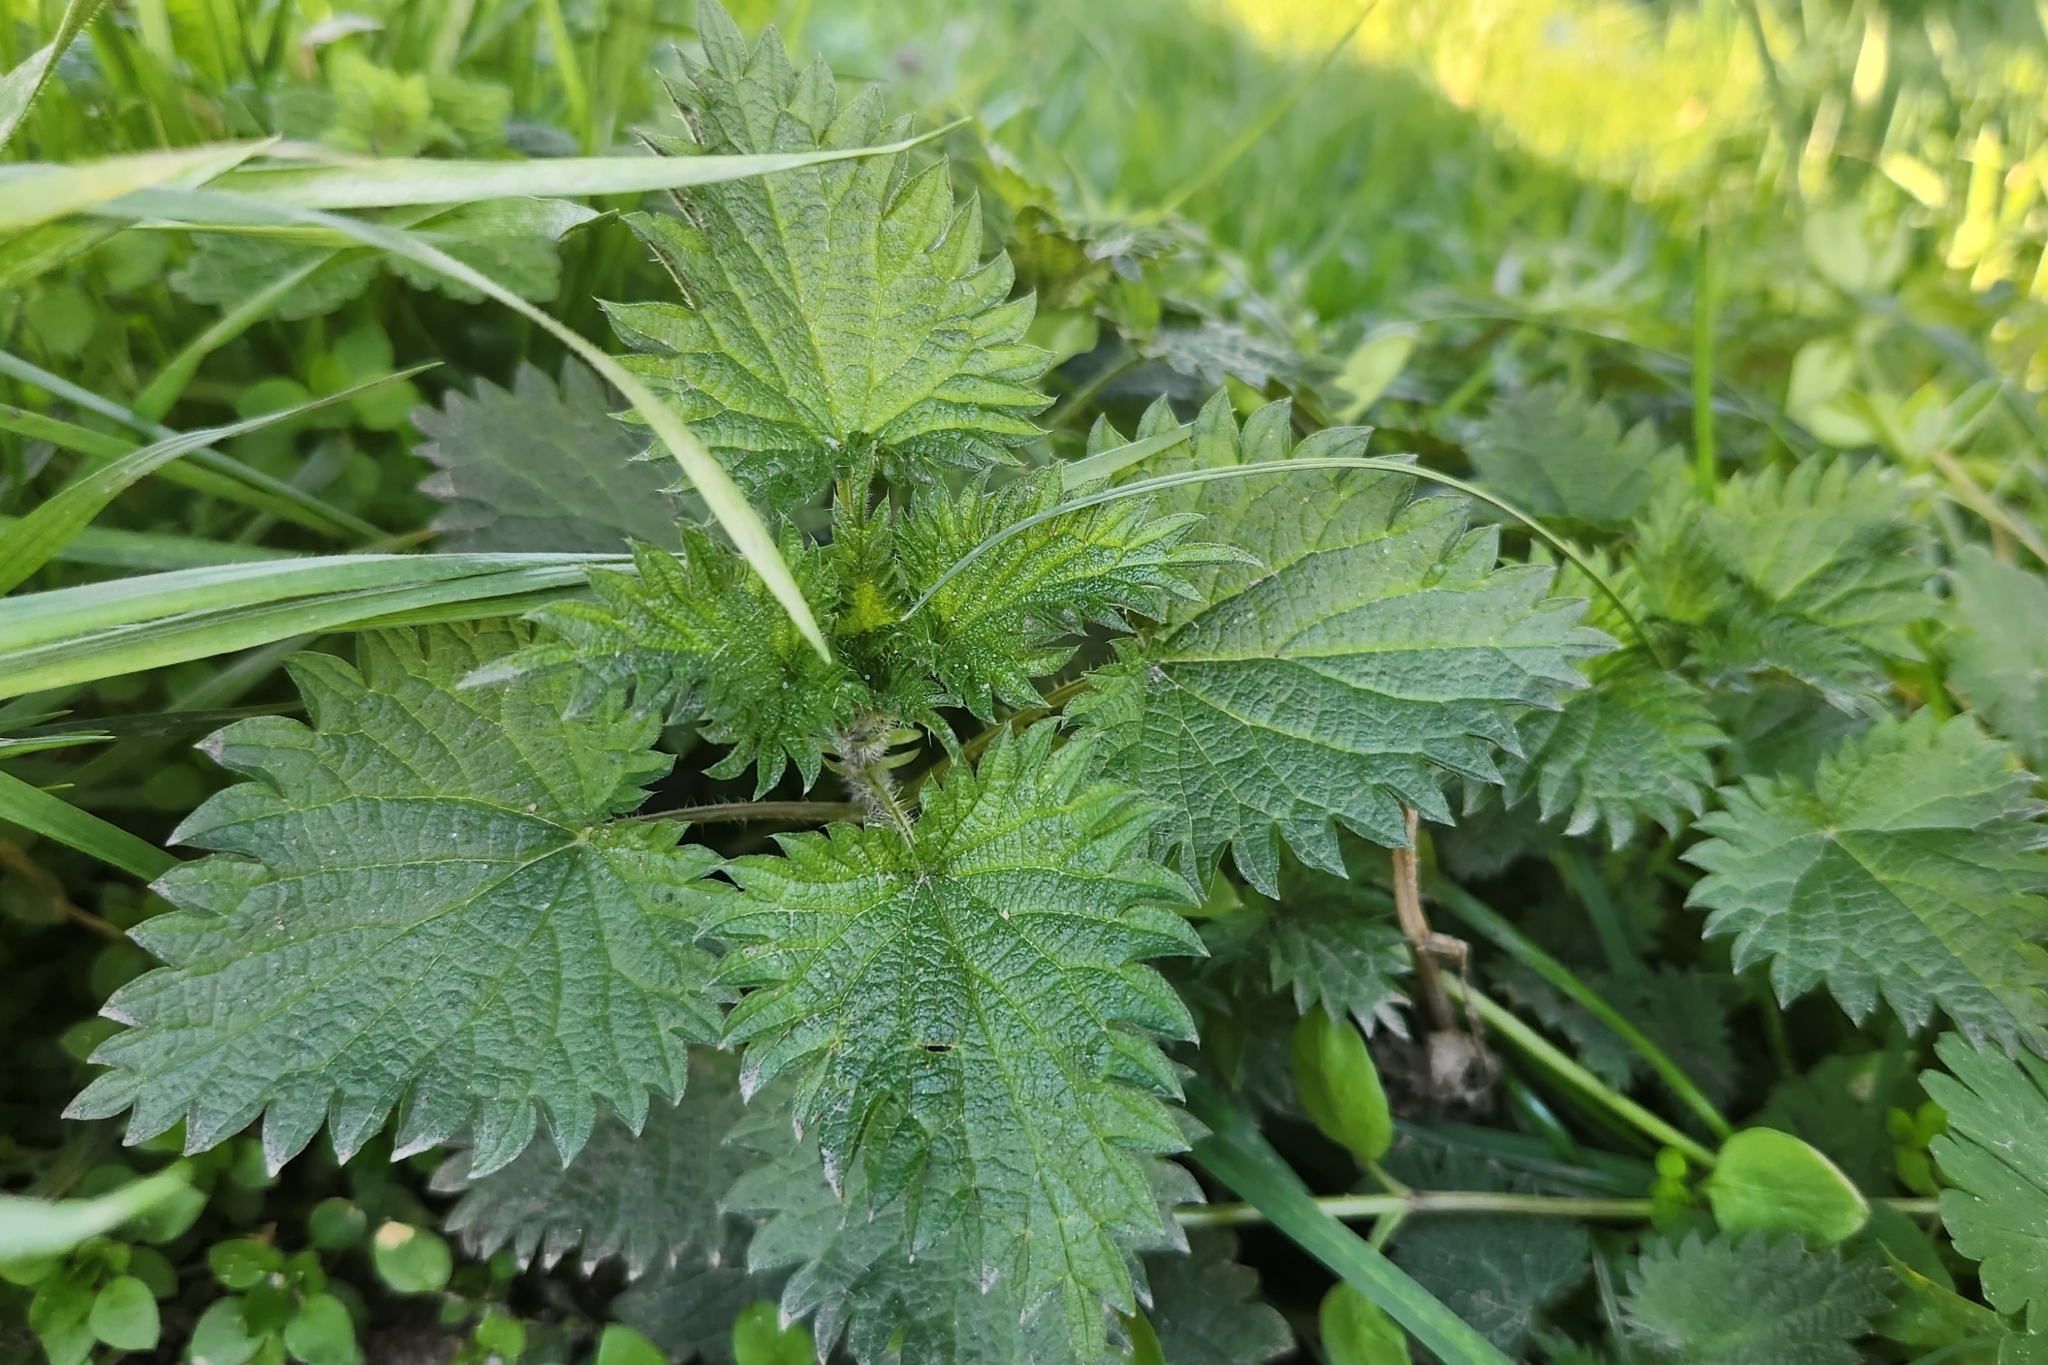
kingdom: Plantae
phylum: Tracheophyta
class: Magnoliopsida
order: Rosales
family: Urticaceae
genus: Urtica
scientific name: Urtica dioica
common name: Common nettle
